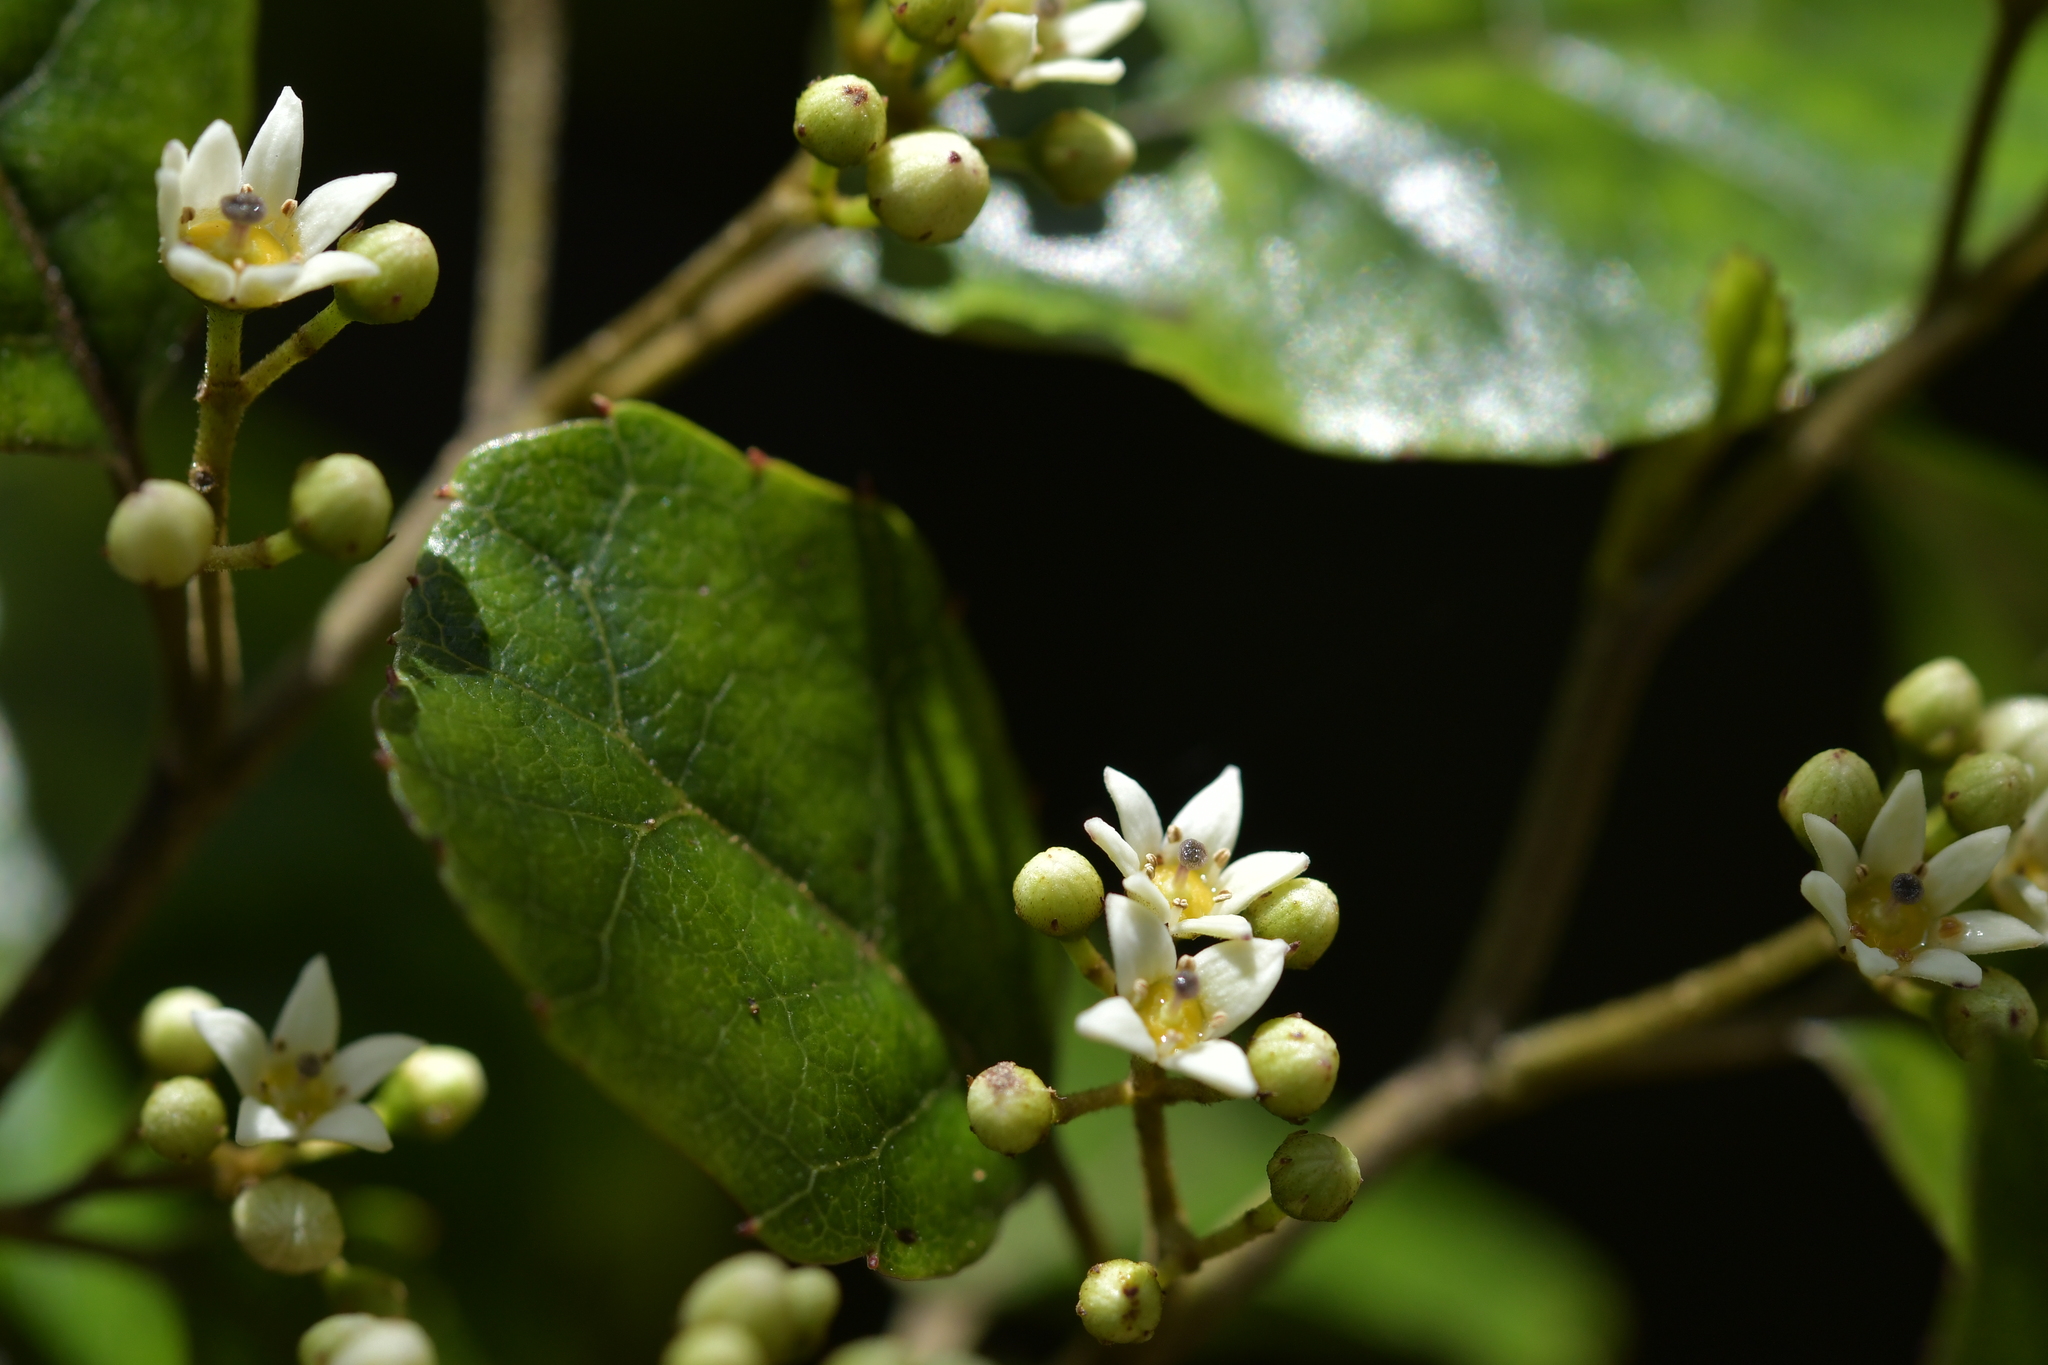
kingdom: Plantae
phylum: Tracheophyta
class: Magnoliopsida
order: Asterales
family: Rousseaceae
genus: Carpodetus
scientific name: Carpodetus serratus
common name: White mapau
